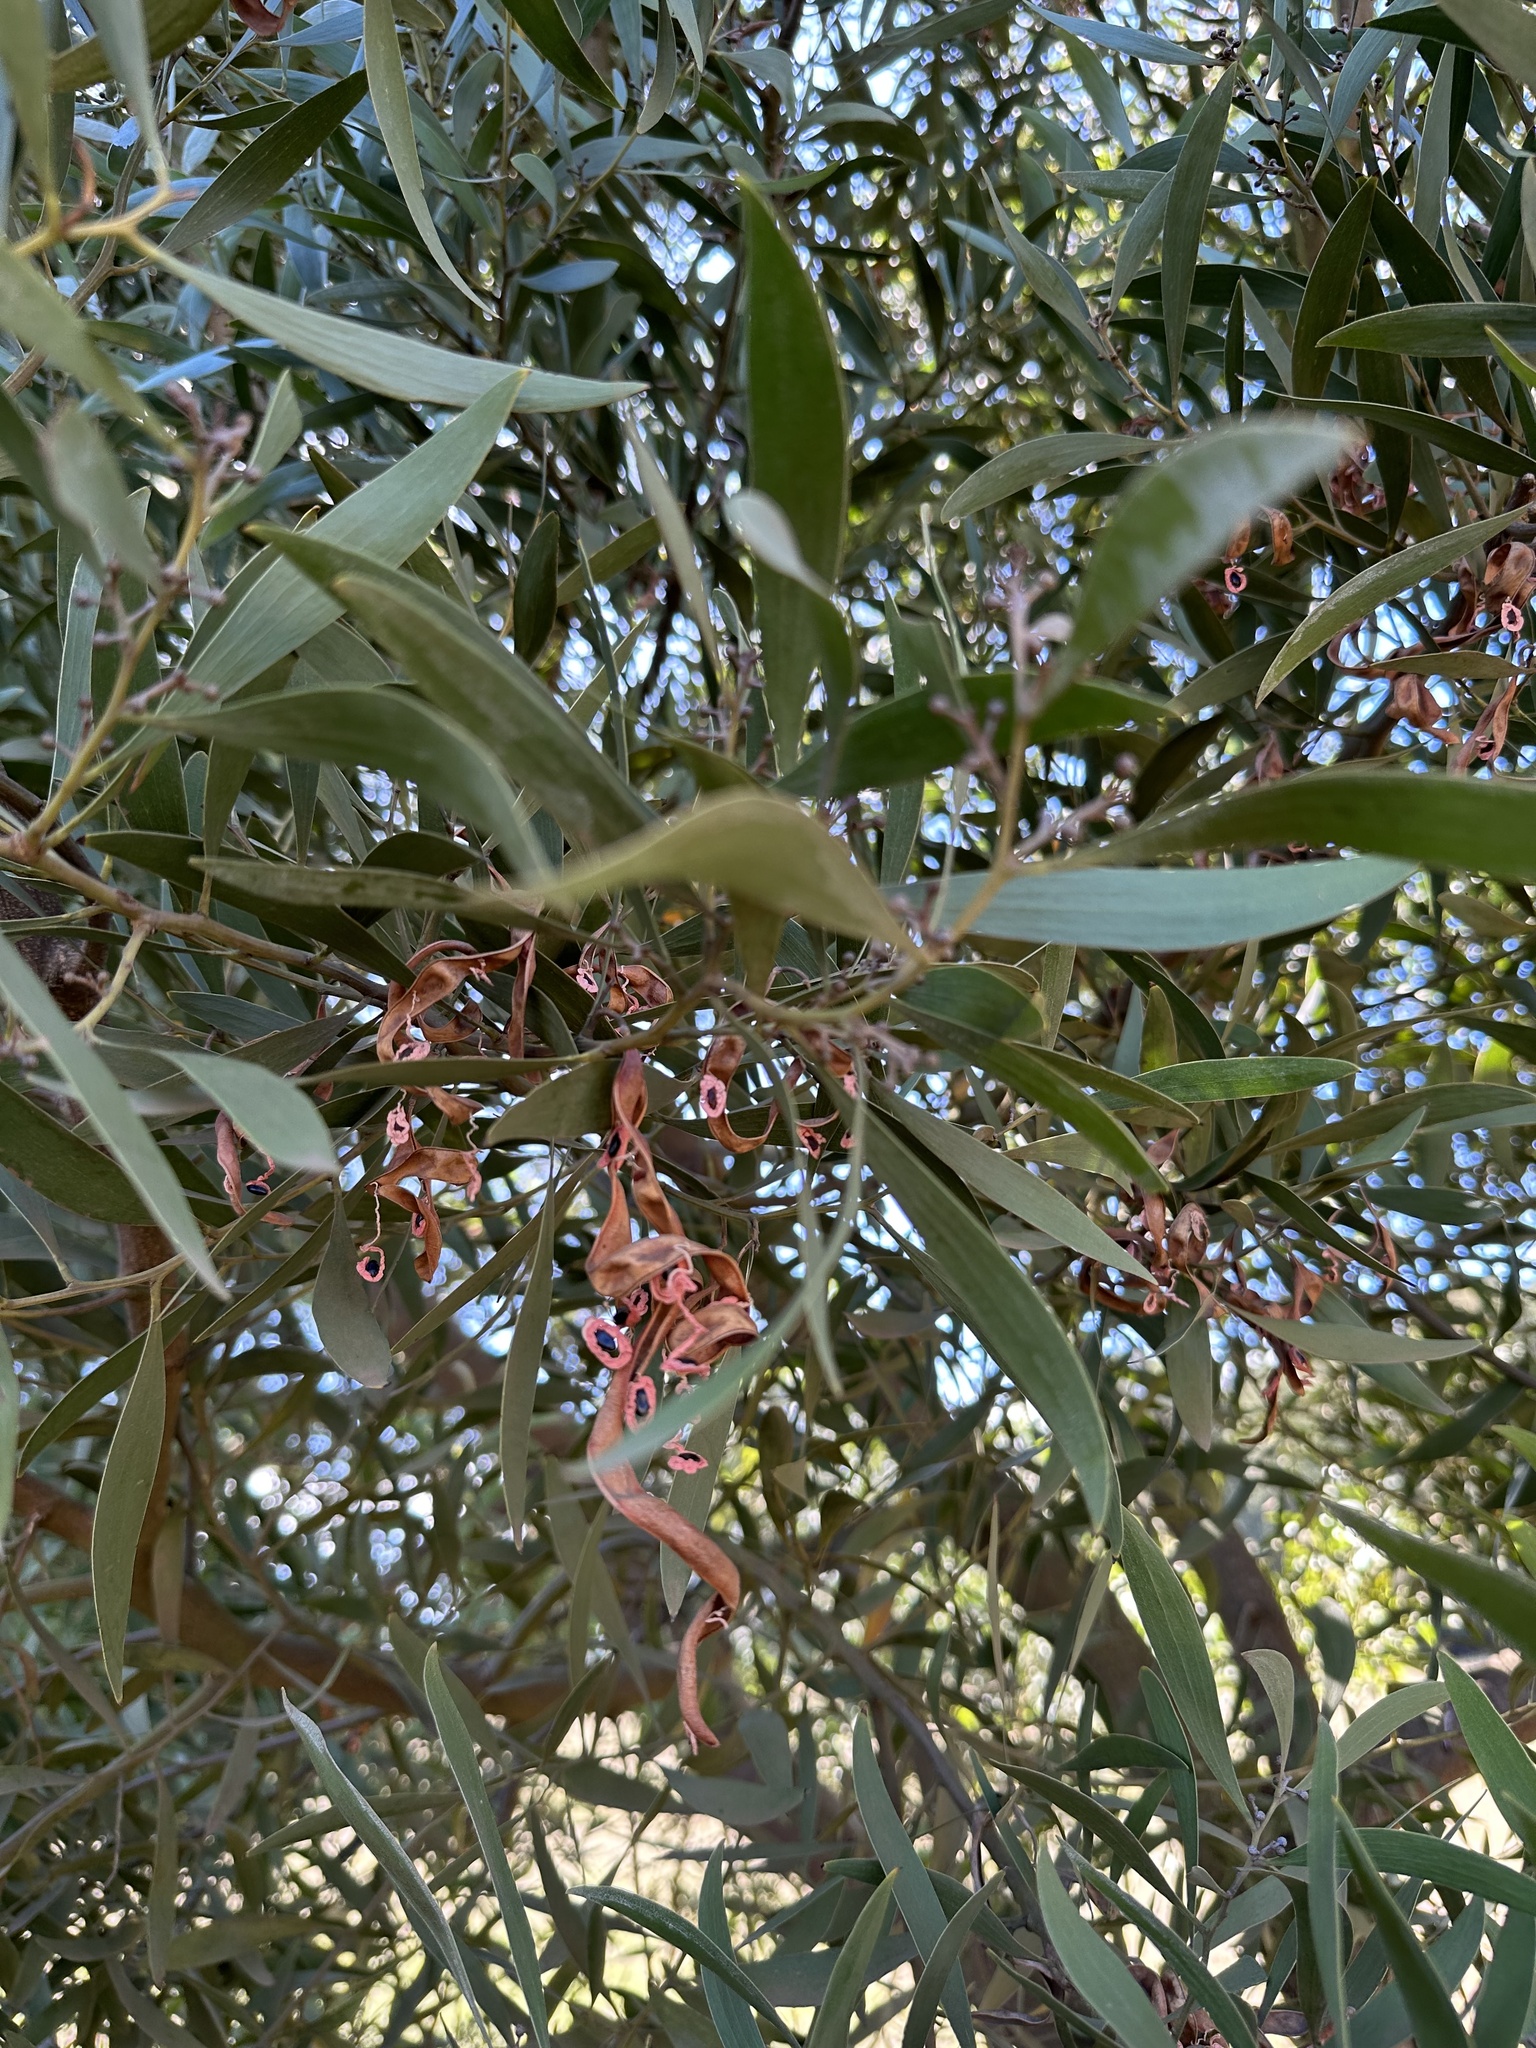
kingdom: Plantae
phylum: Tracheophyta
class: Magnoliopsida
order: Fabales
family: Fabaceae
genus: Acacia
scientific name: Acacia melanoxylon
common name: Blackwood
